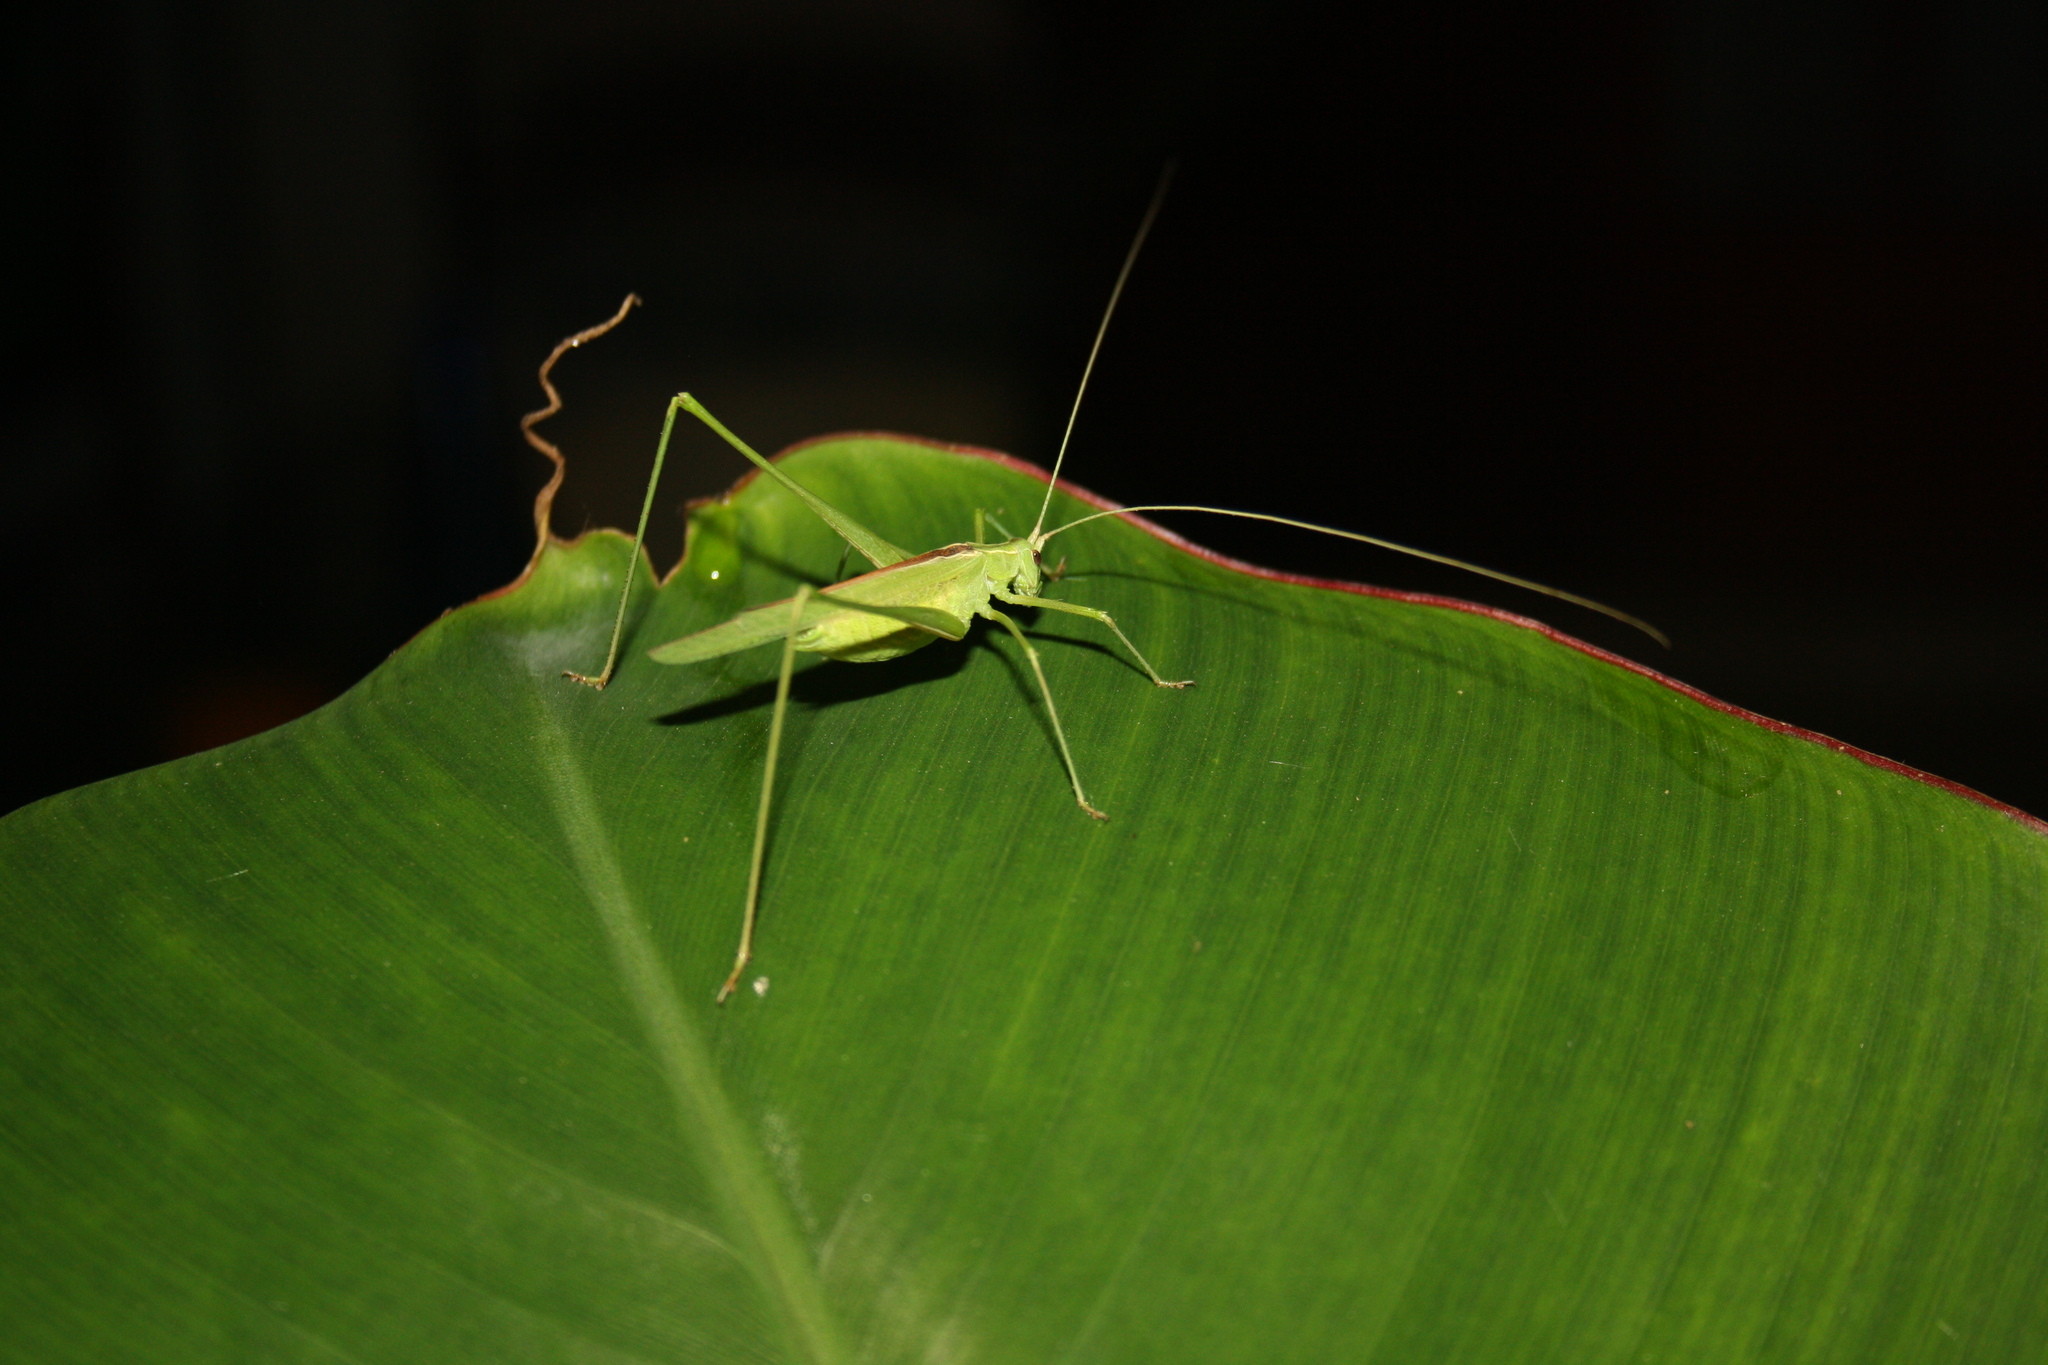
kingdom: Animalia
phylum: Arthropoda
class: Insecta
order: Orthoptera
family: Tettigoniidae
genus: Acrometopa
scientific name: Acrometopa servillea
